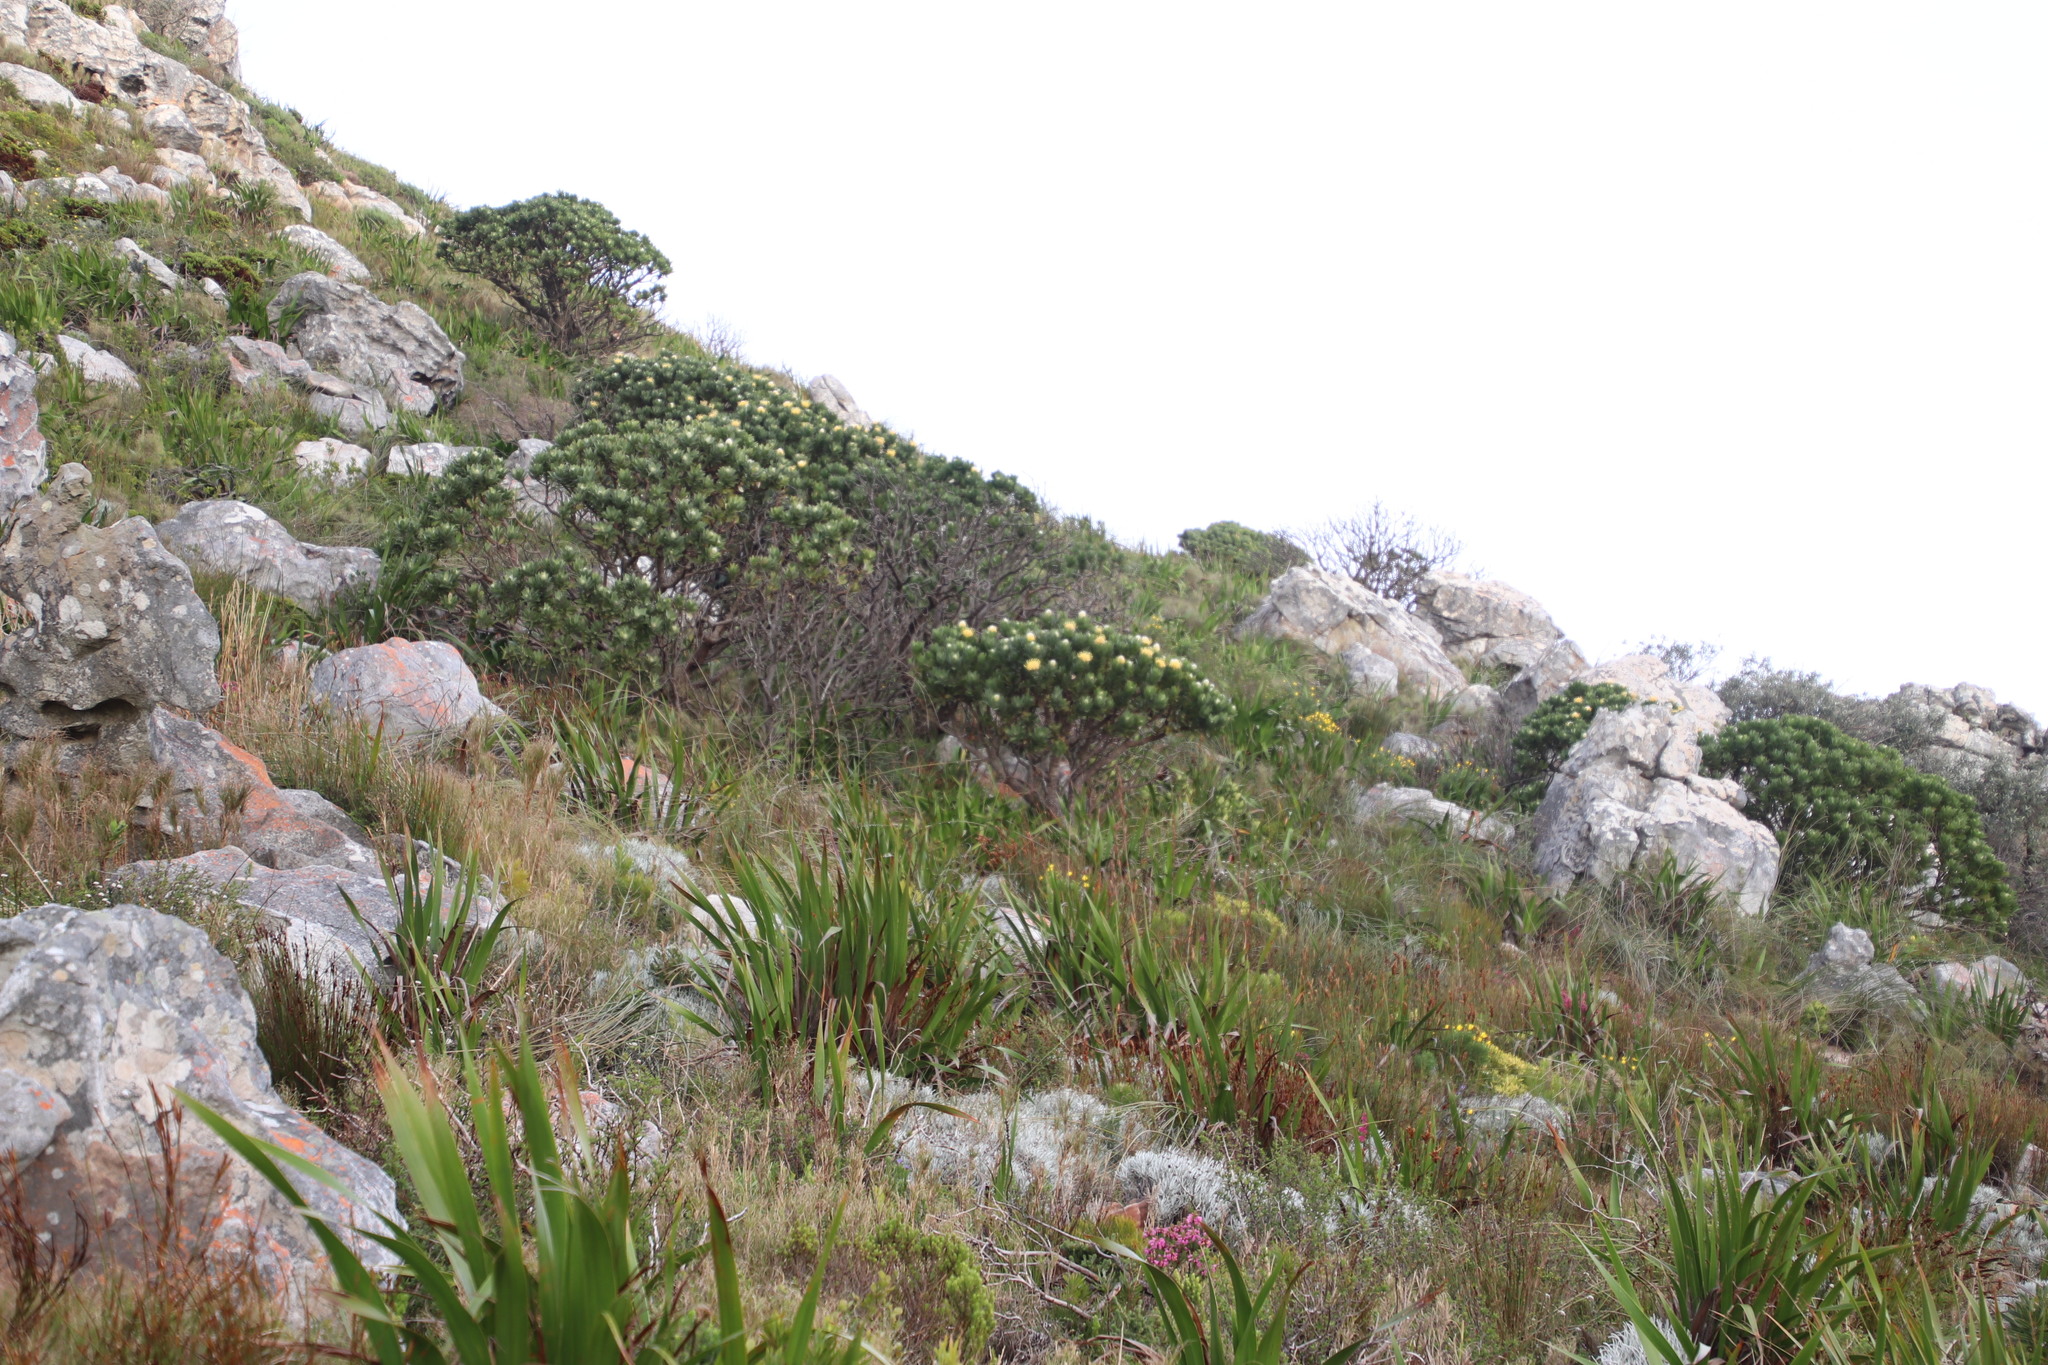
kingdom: Plantae
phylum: Tracheophyta
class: Magnoliopsida
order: Proteales
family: Proteaceae
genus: Leucospermum
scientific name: Leucospermum conocarpodendron
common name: Tree pincushion
